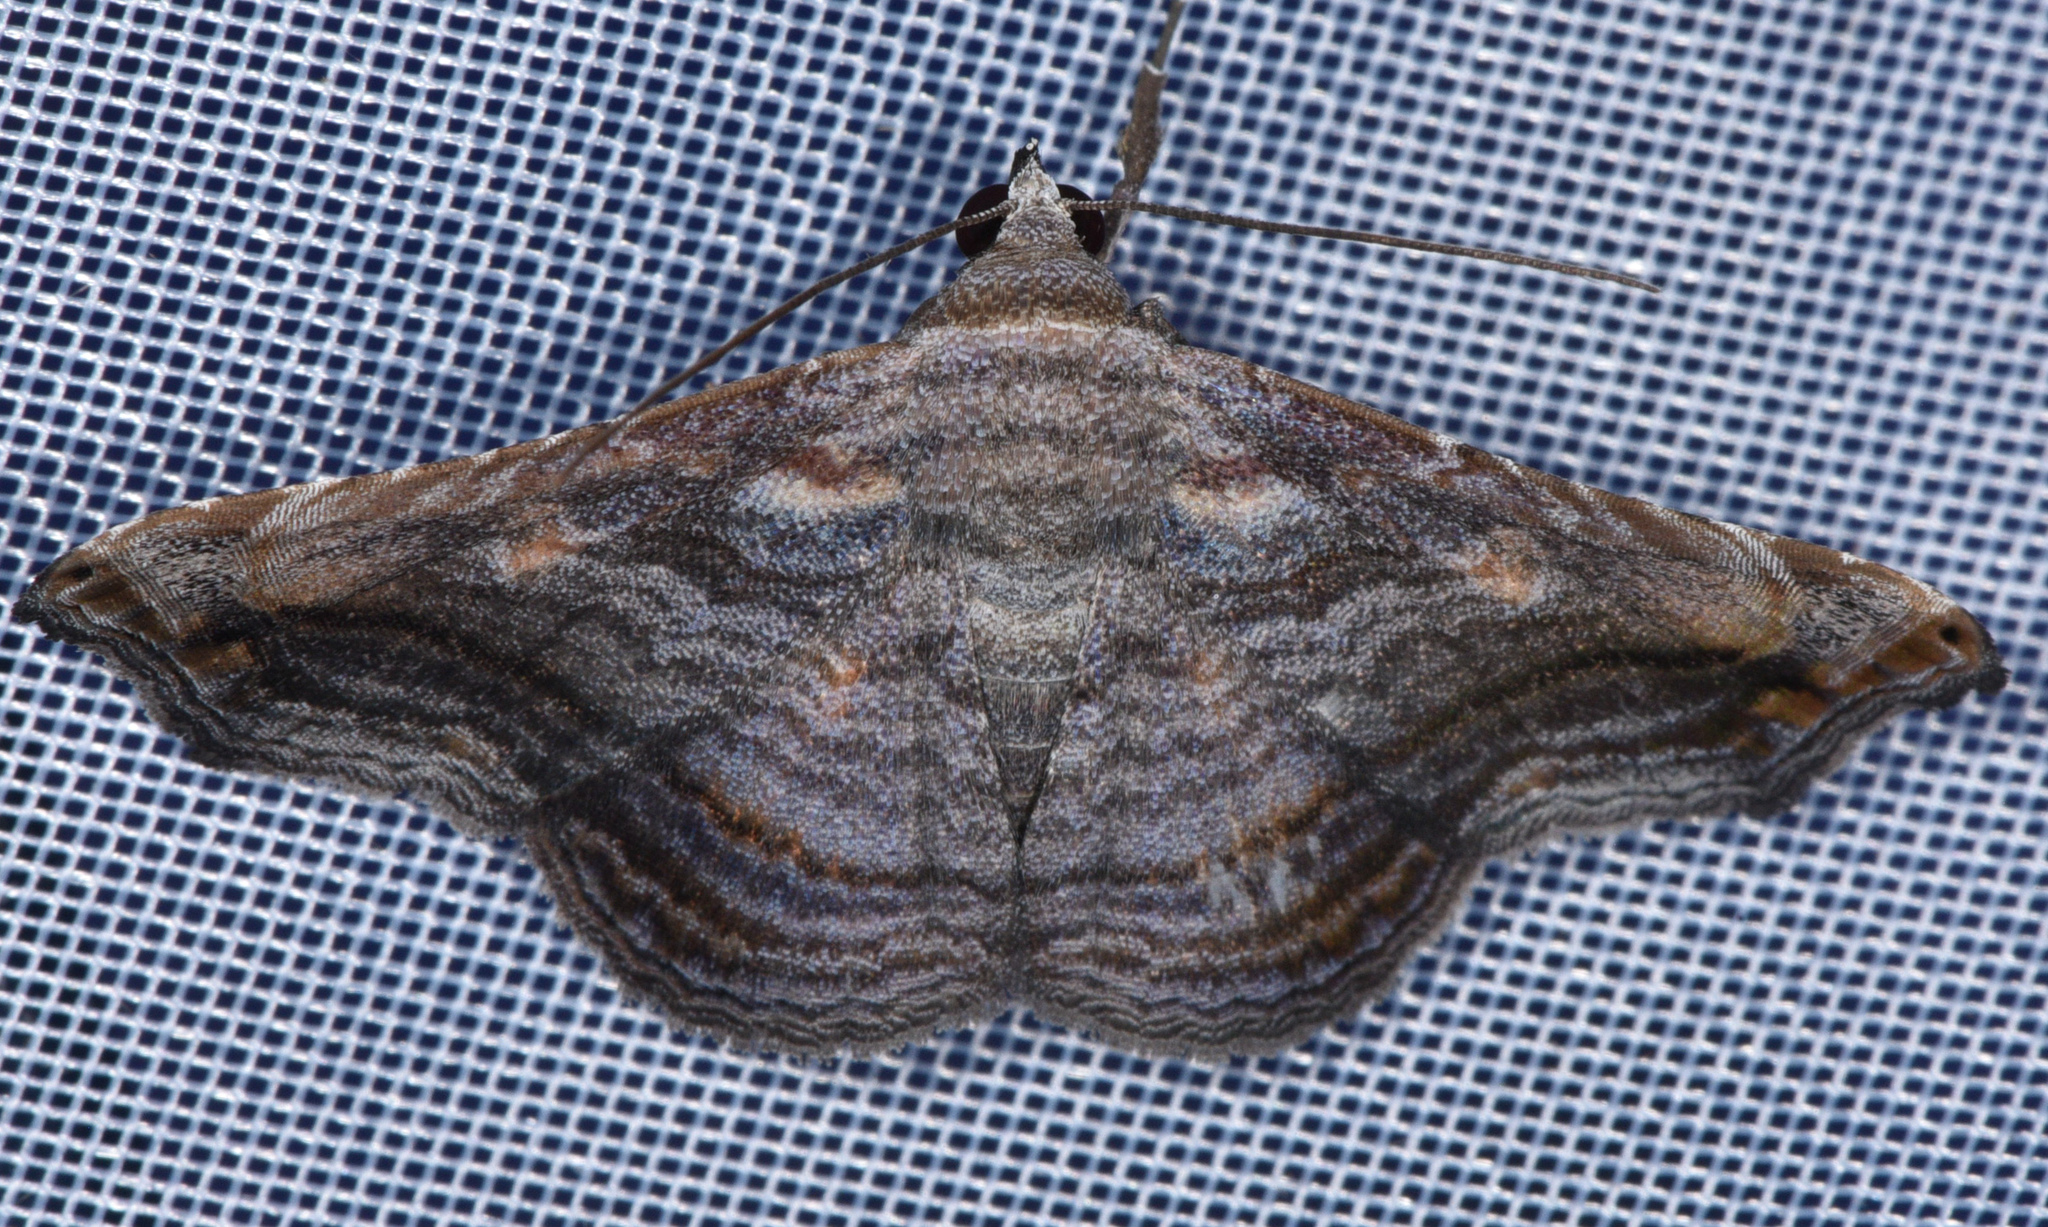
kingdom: Animalia
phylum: Arthropoda
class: Insecta
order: Lepidoptera
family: Erebidae
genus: Tyrissa
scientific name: Tyrissa recurva
